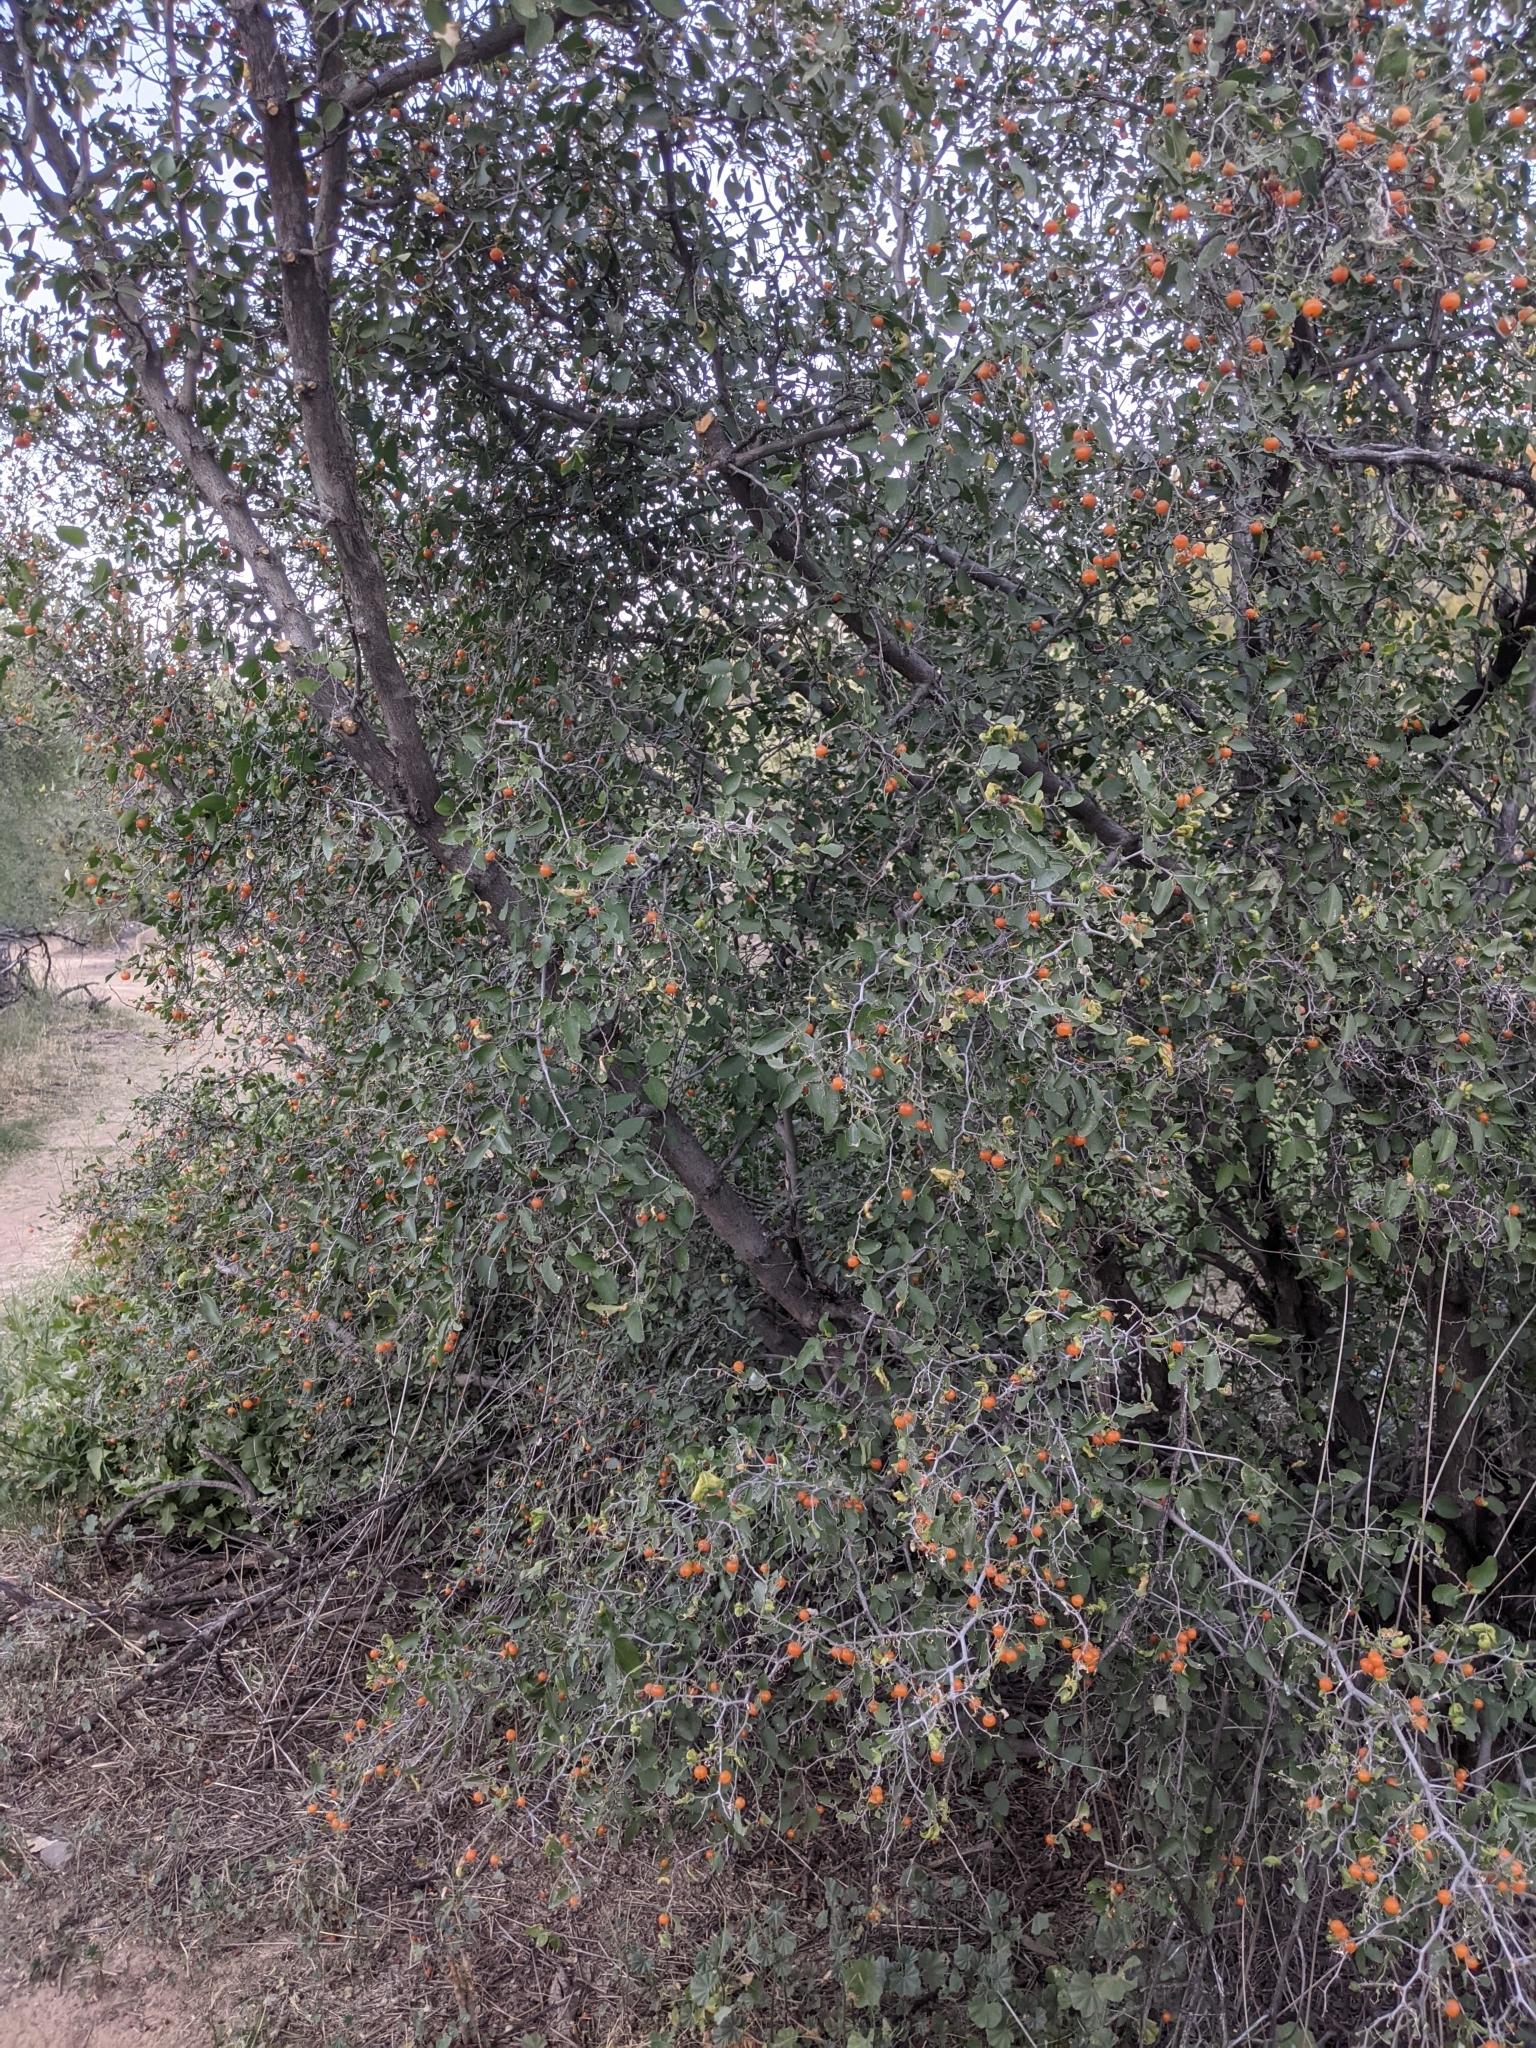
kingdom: Plantae
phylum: Tracheophyta
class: Magnoliopsida
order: Rosales
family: Cannabaceae
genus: Celtis
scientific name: Celtis pallida
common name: Desert hackberry
